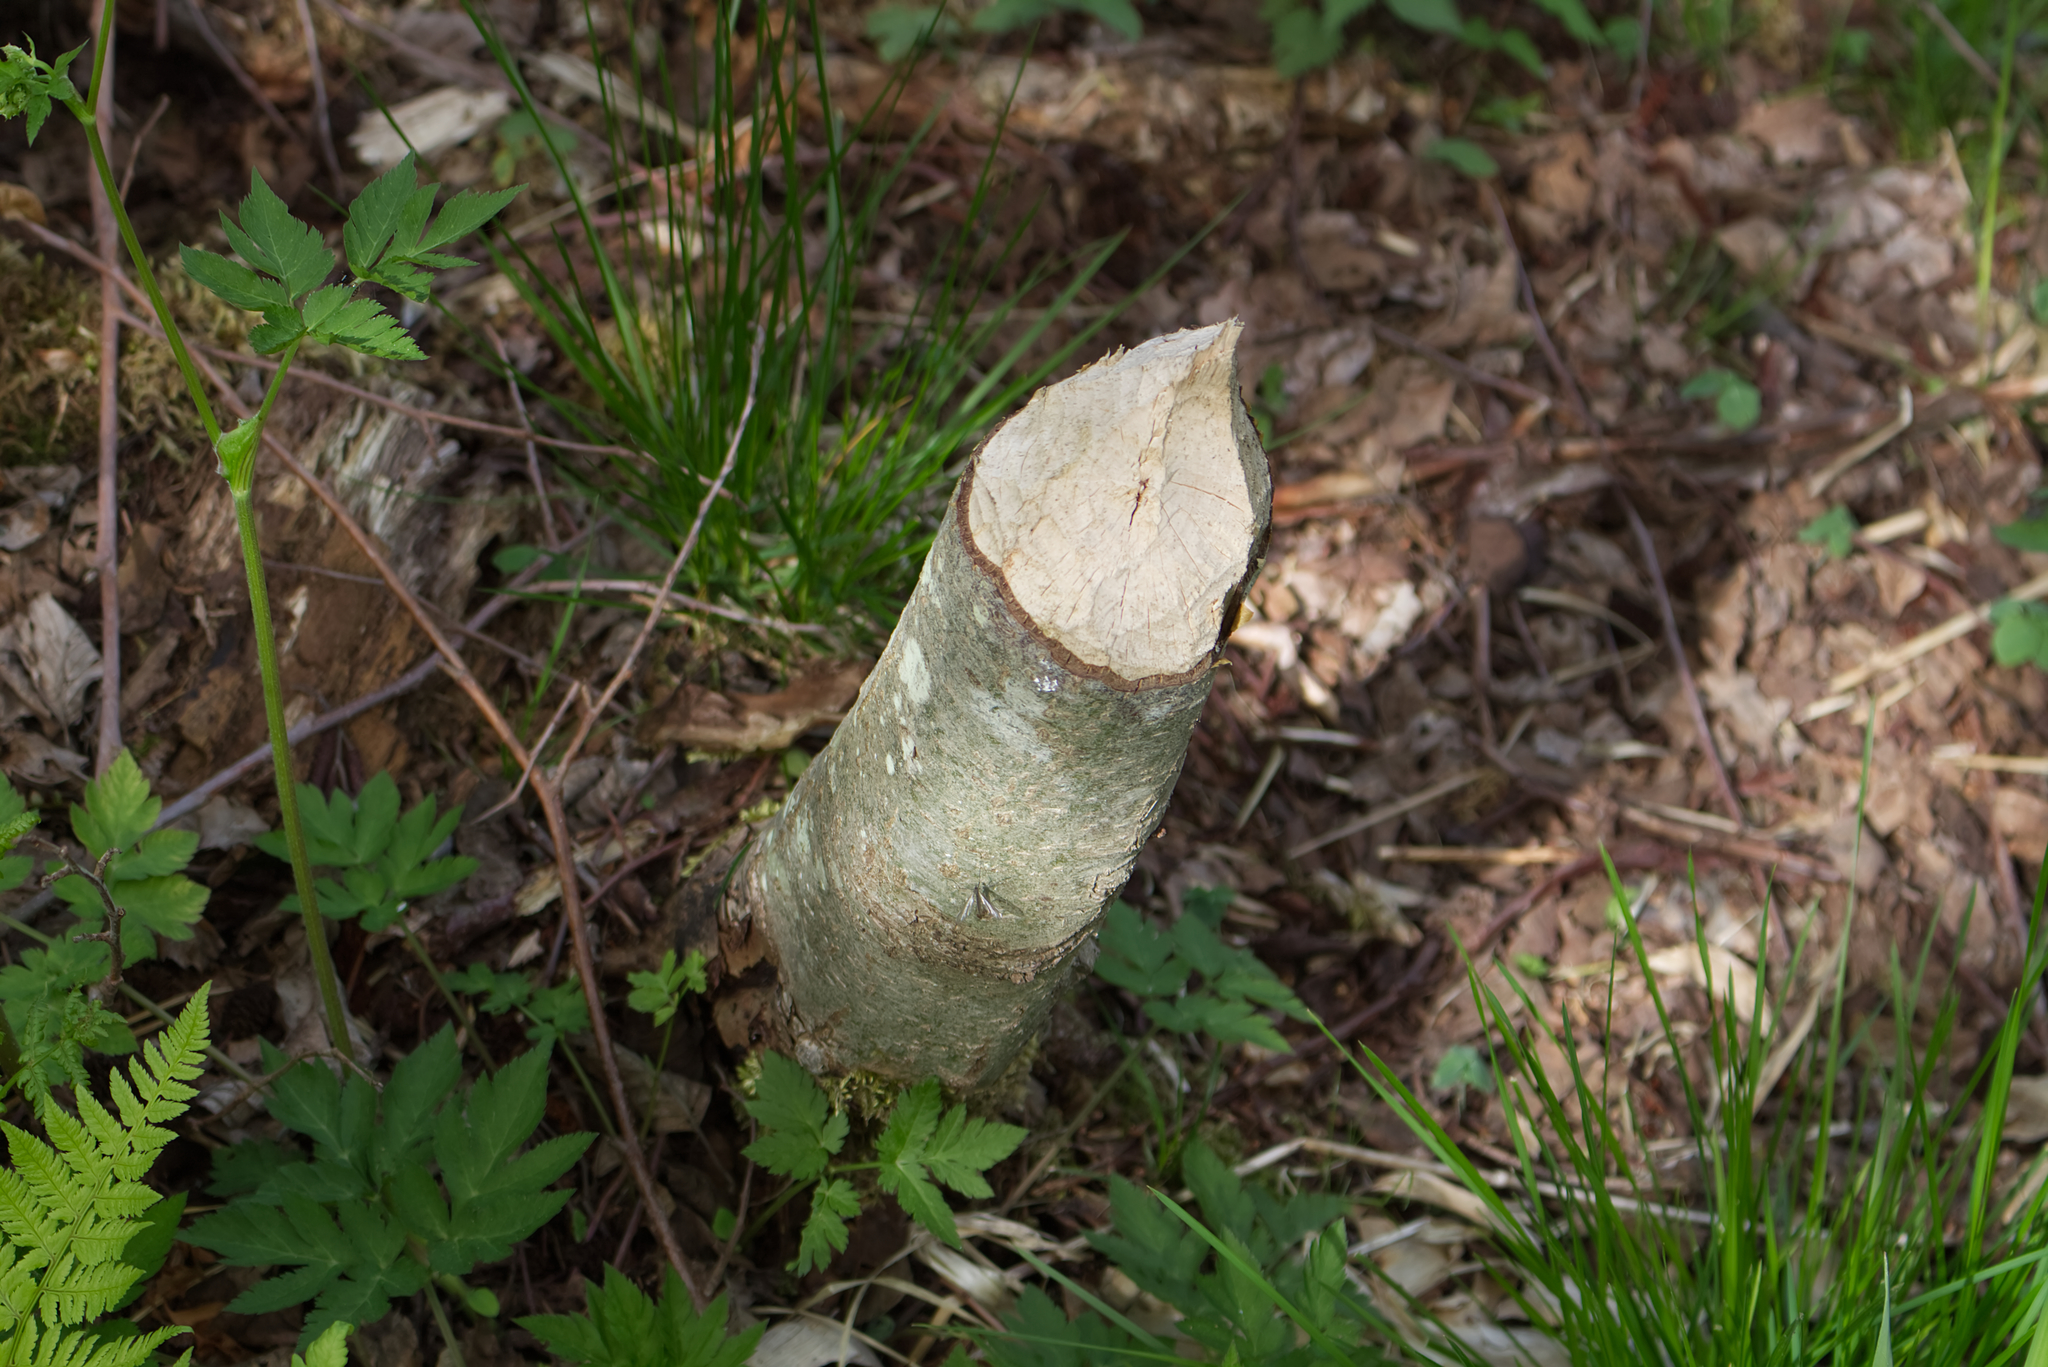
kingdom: Animalia
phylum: Chordata
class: Mammalia
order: Rodentia
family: Castoridae
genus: Castor
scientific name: Castor fiber
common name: Eurasian beaver
